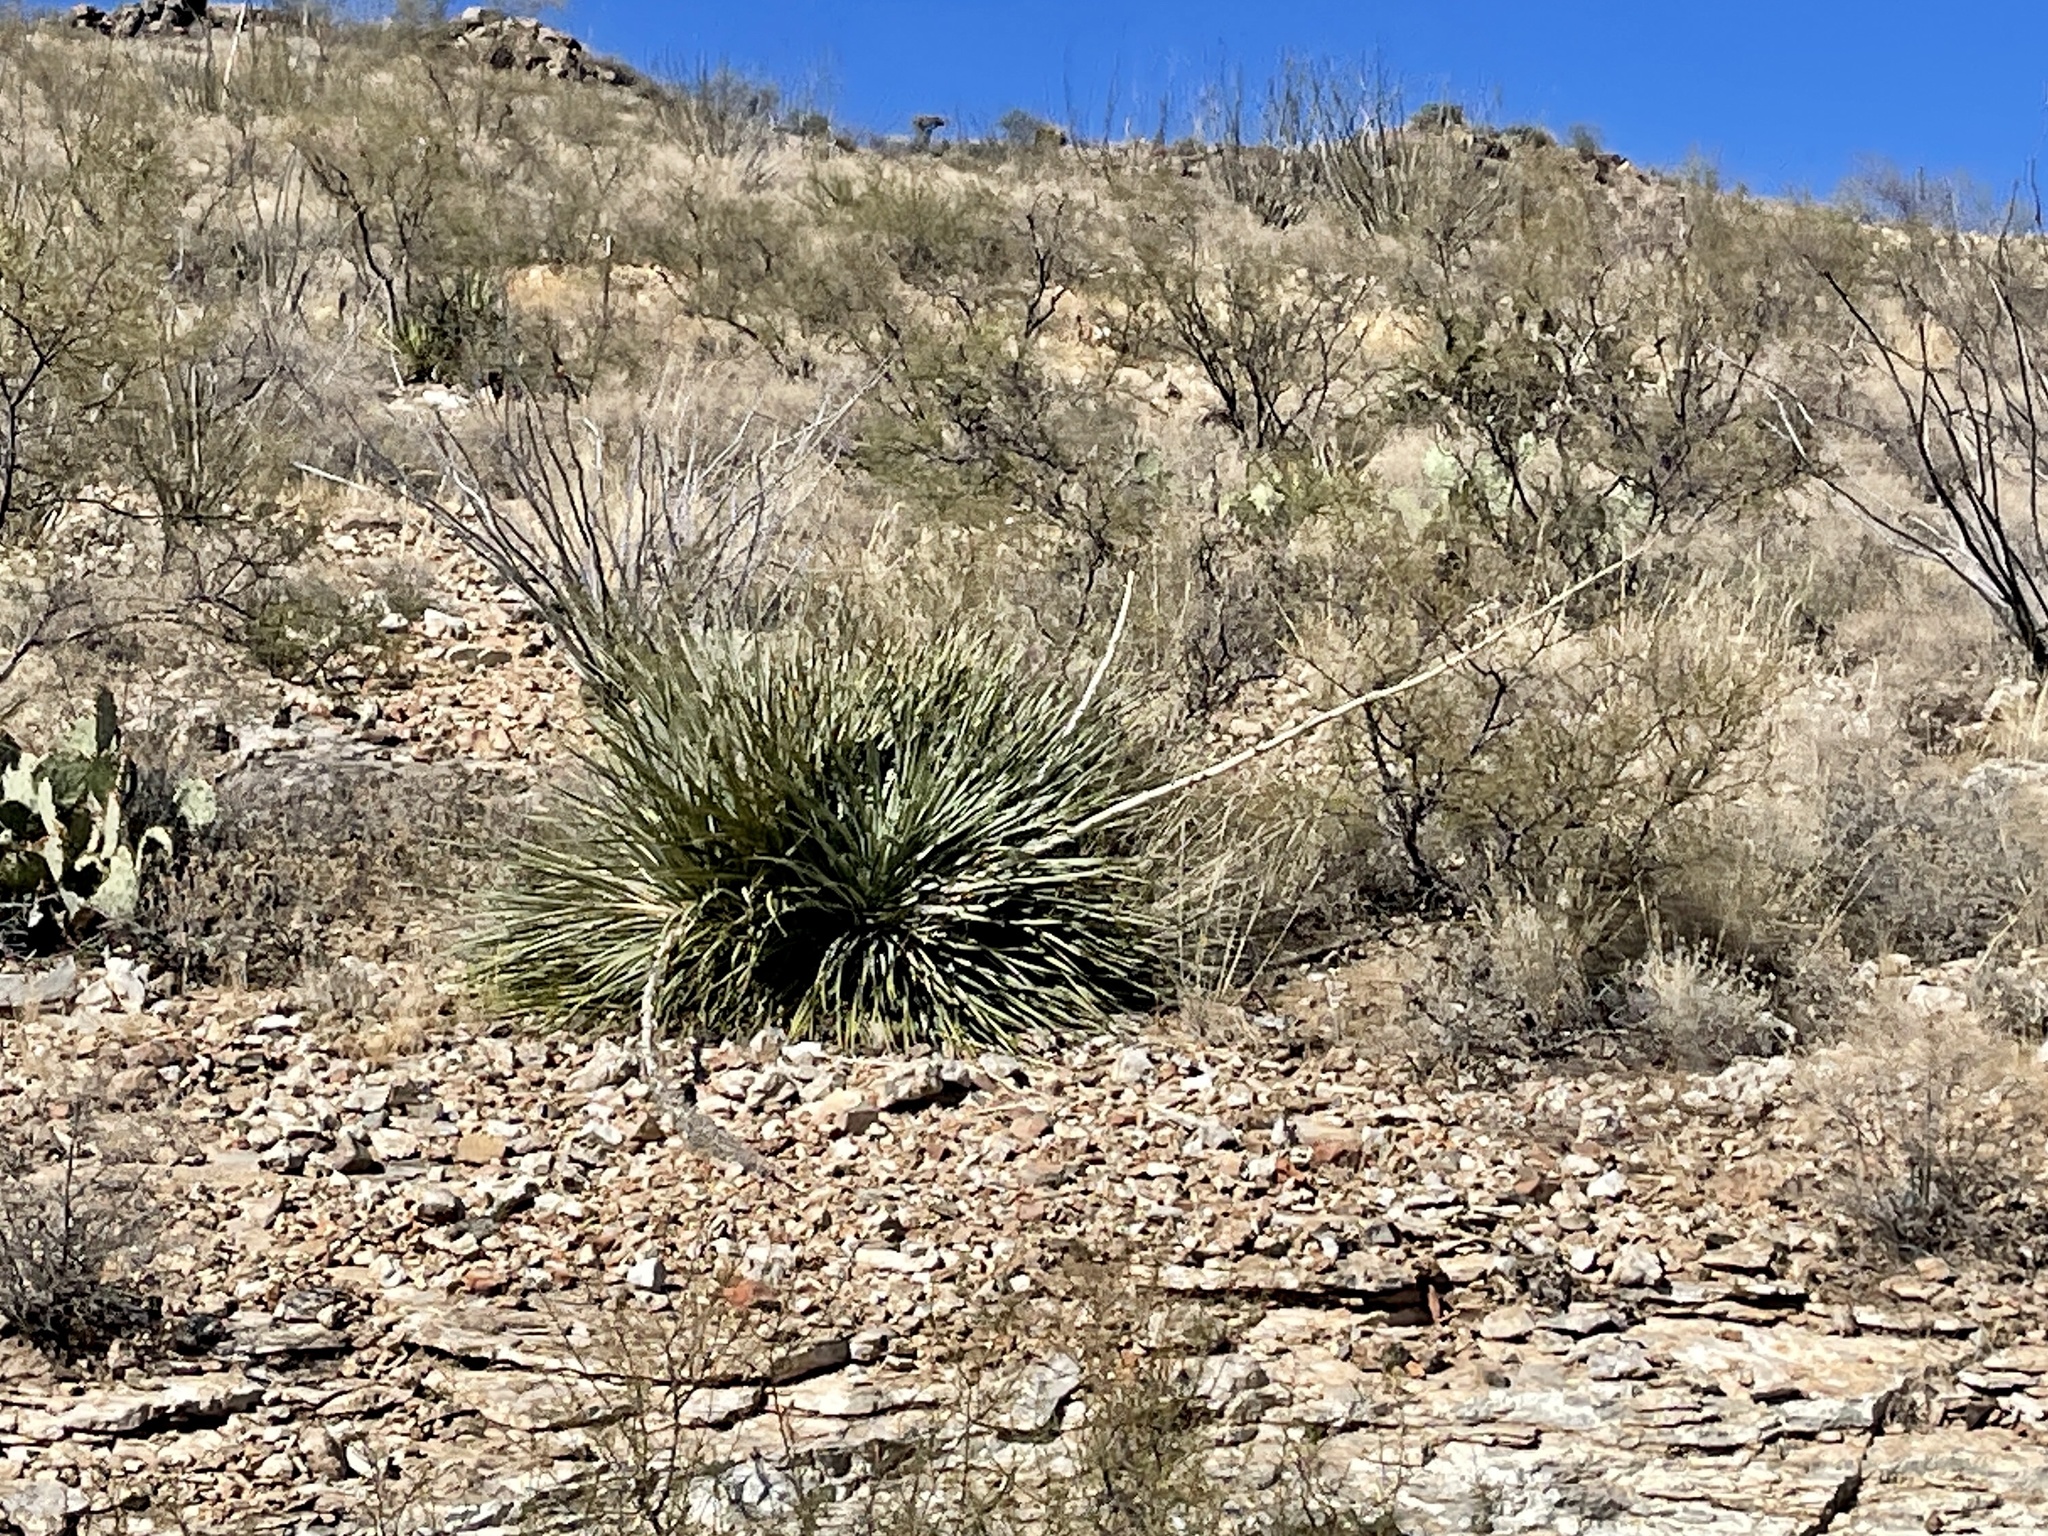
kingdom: Plantae
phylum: Tracheophyta
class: Liliopsida
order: Asparagales
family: Asparagaceae
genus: Dasylirion
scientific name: Dasylirion wheeleri
